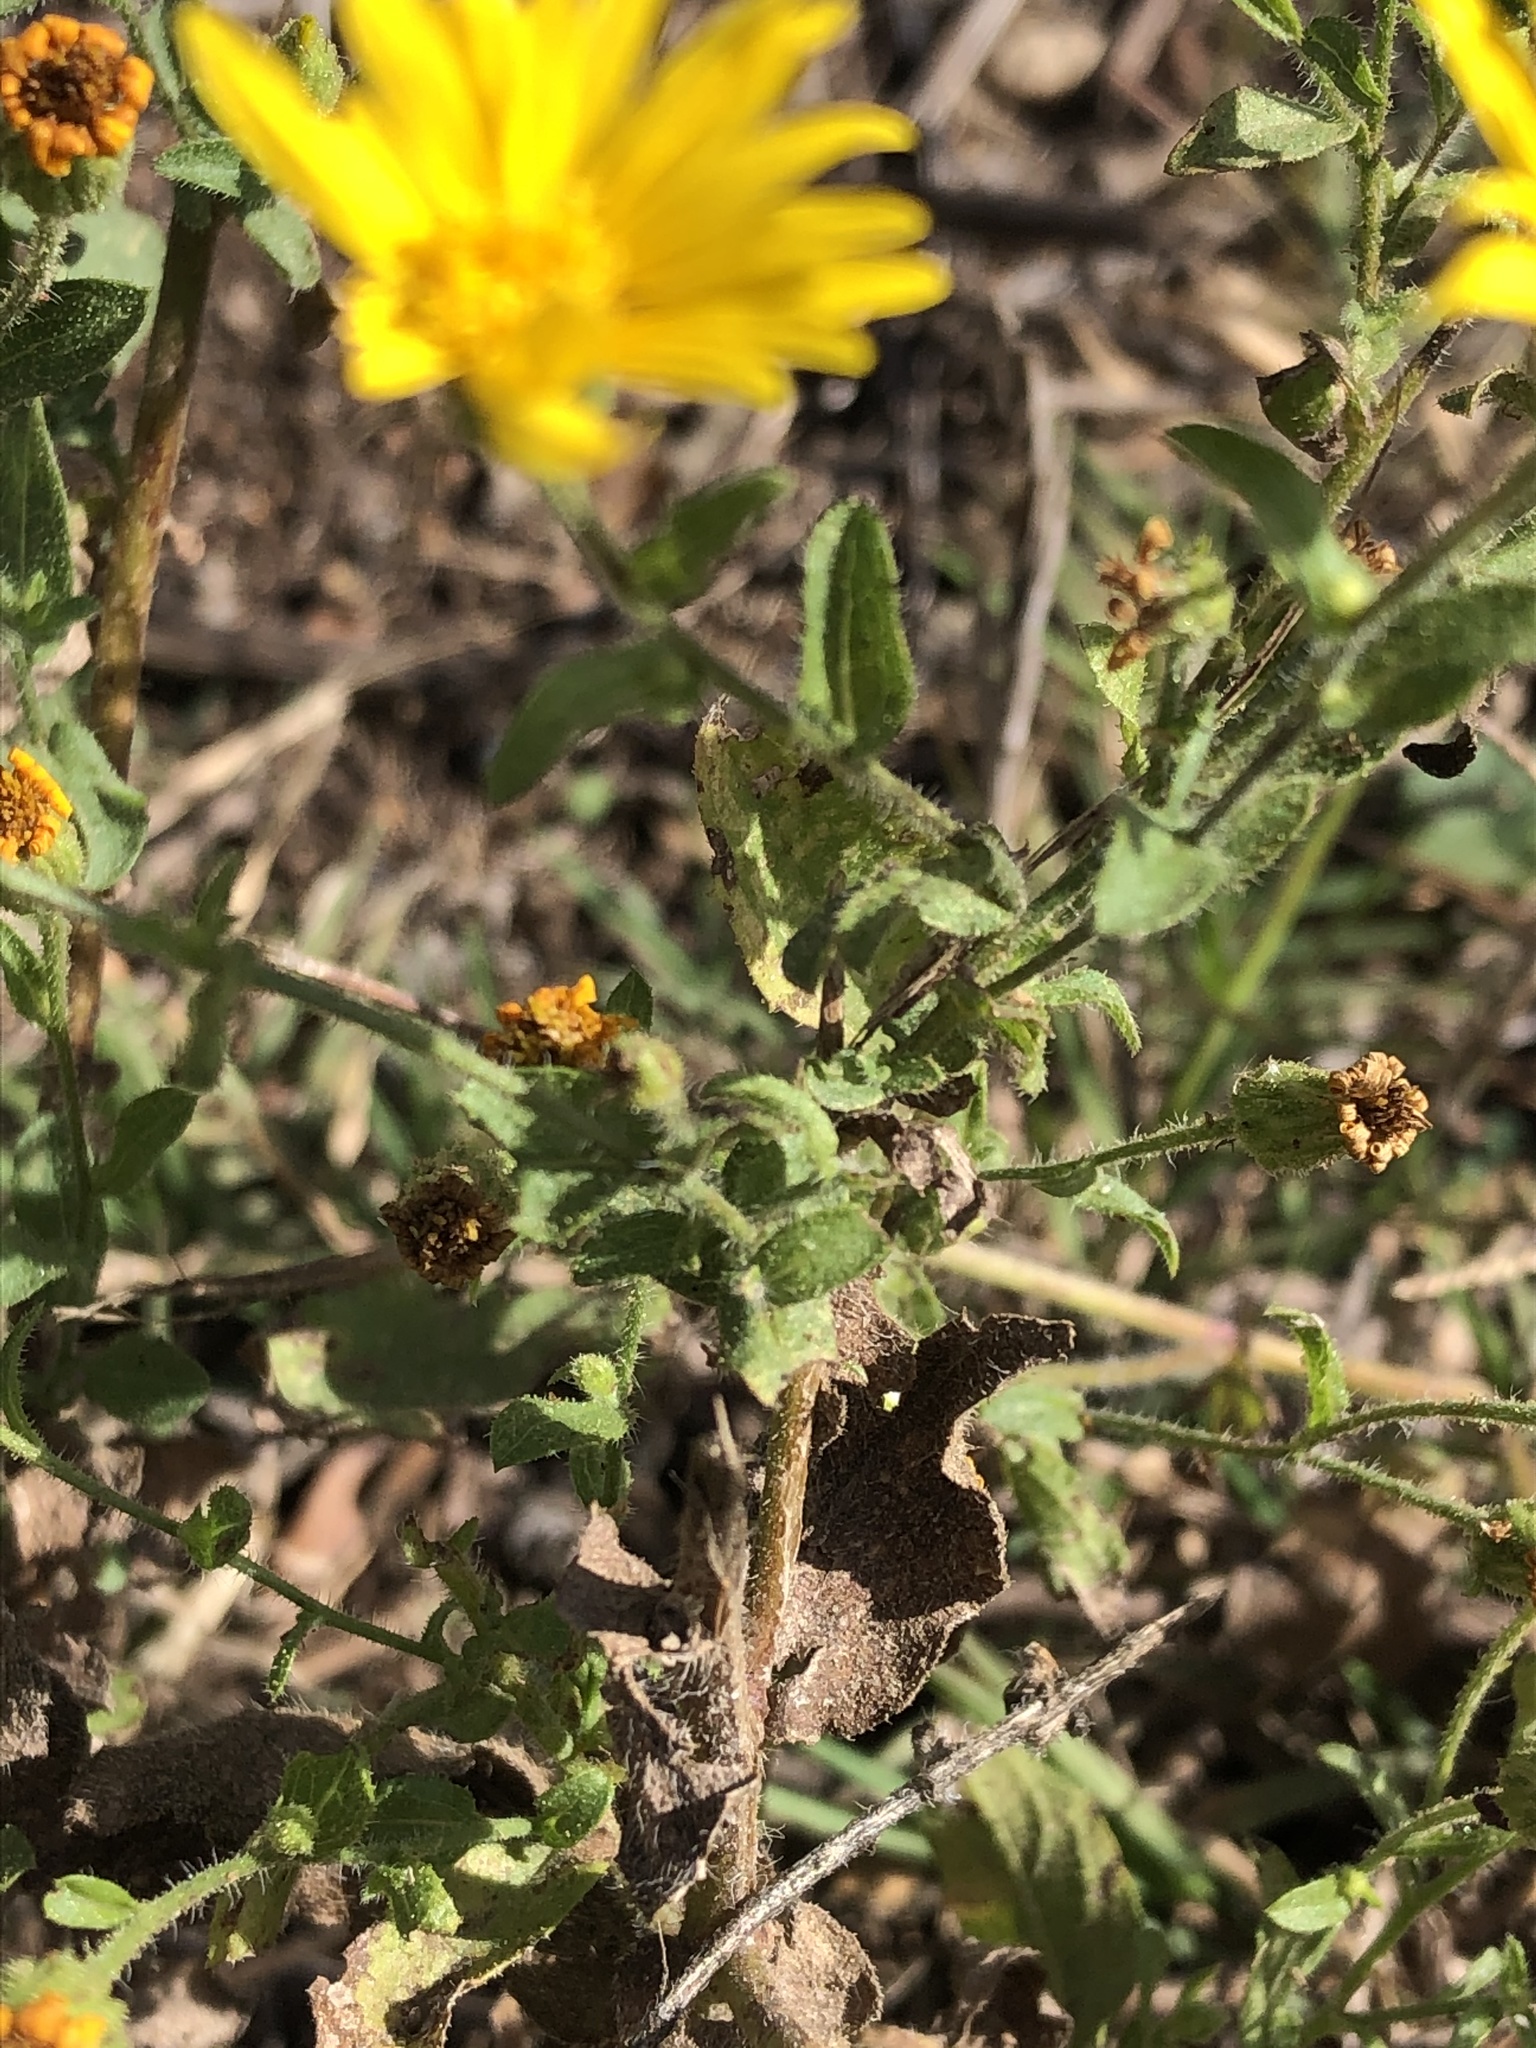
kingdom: Plantae
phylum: Tracheophyta
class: Magnoliopsida
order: Asterales
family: Asteraceae
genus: Heterotheca
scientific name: Heterotheca subaxillaris
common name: Camphorweed
